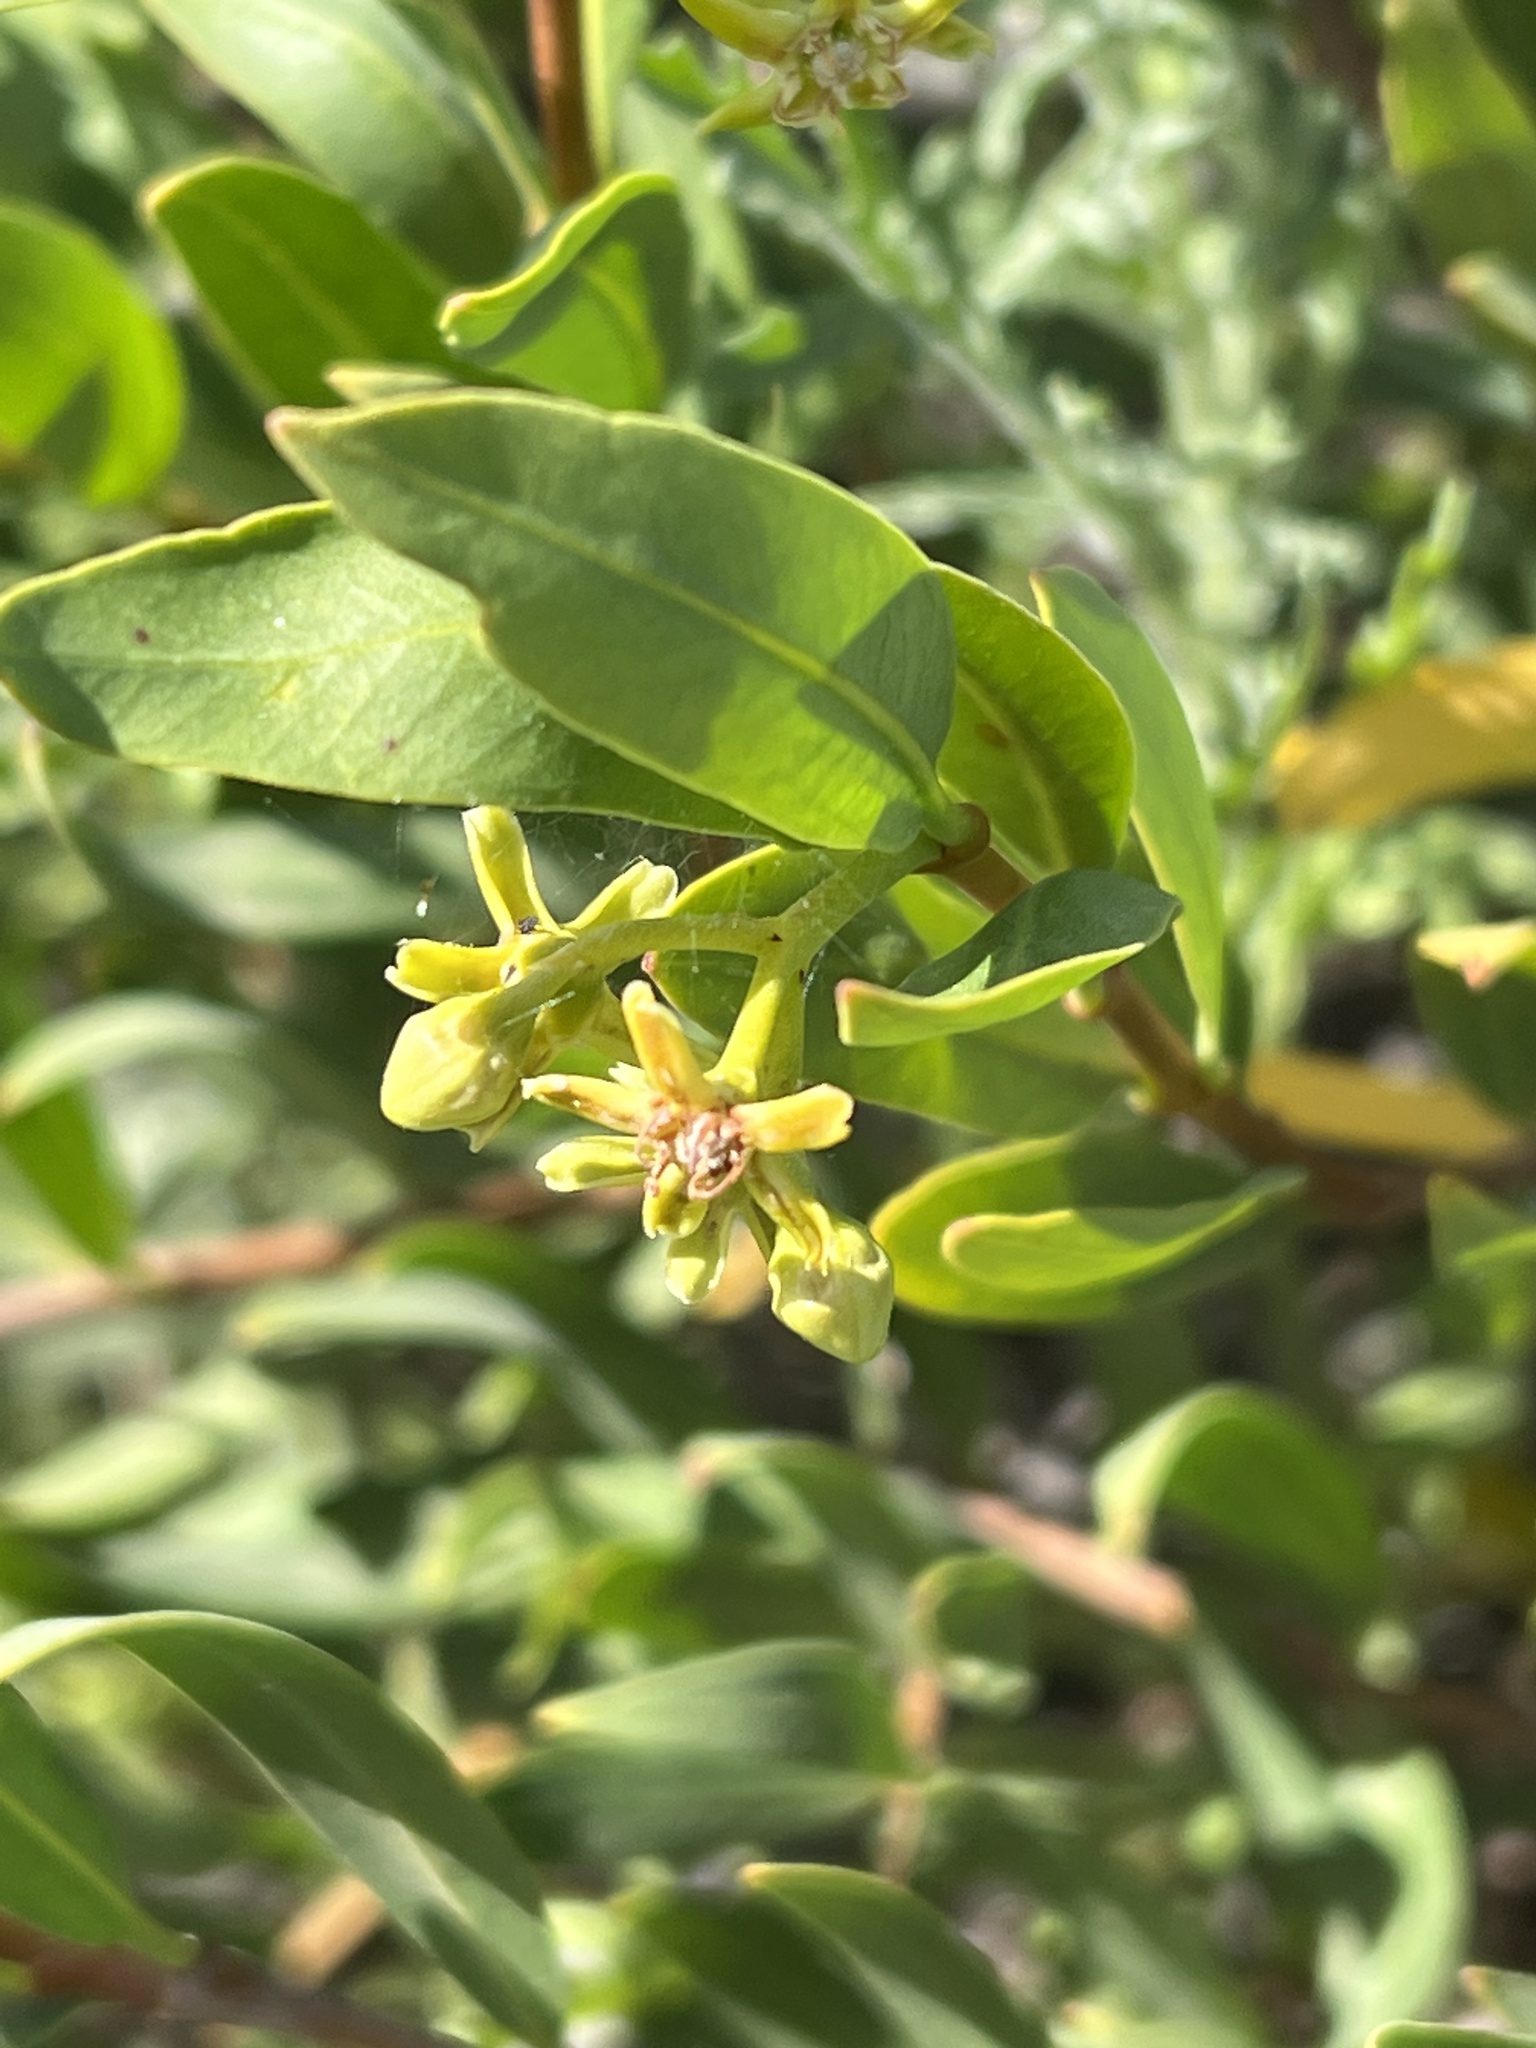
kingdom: Plantae
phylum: Tracheophyta
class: Magnoliopsida
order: Gentianales
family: Apocynaceae
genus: Periploca
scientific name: Periploca laevigata
